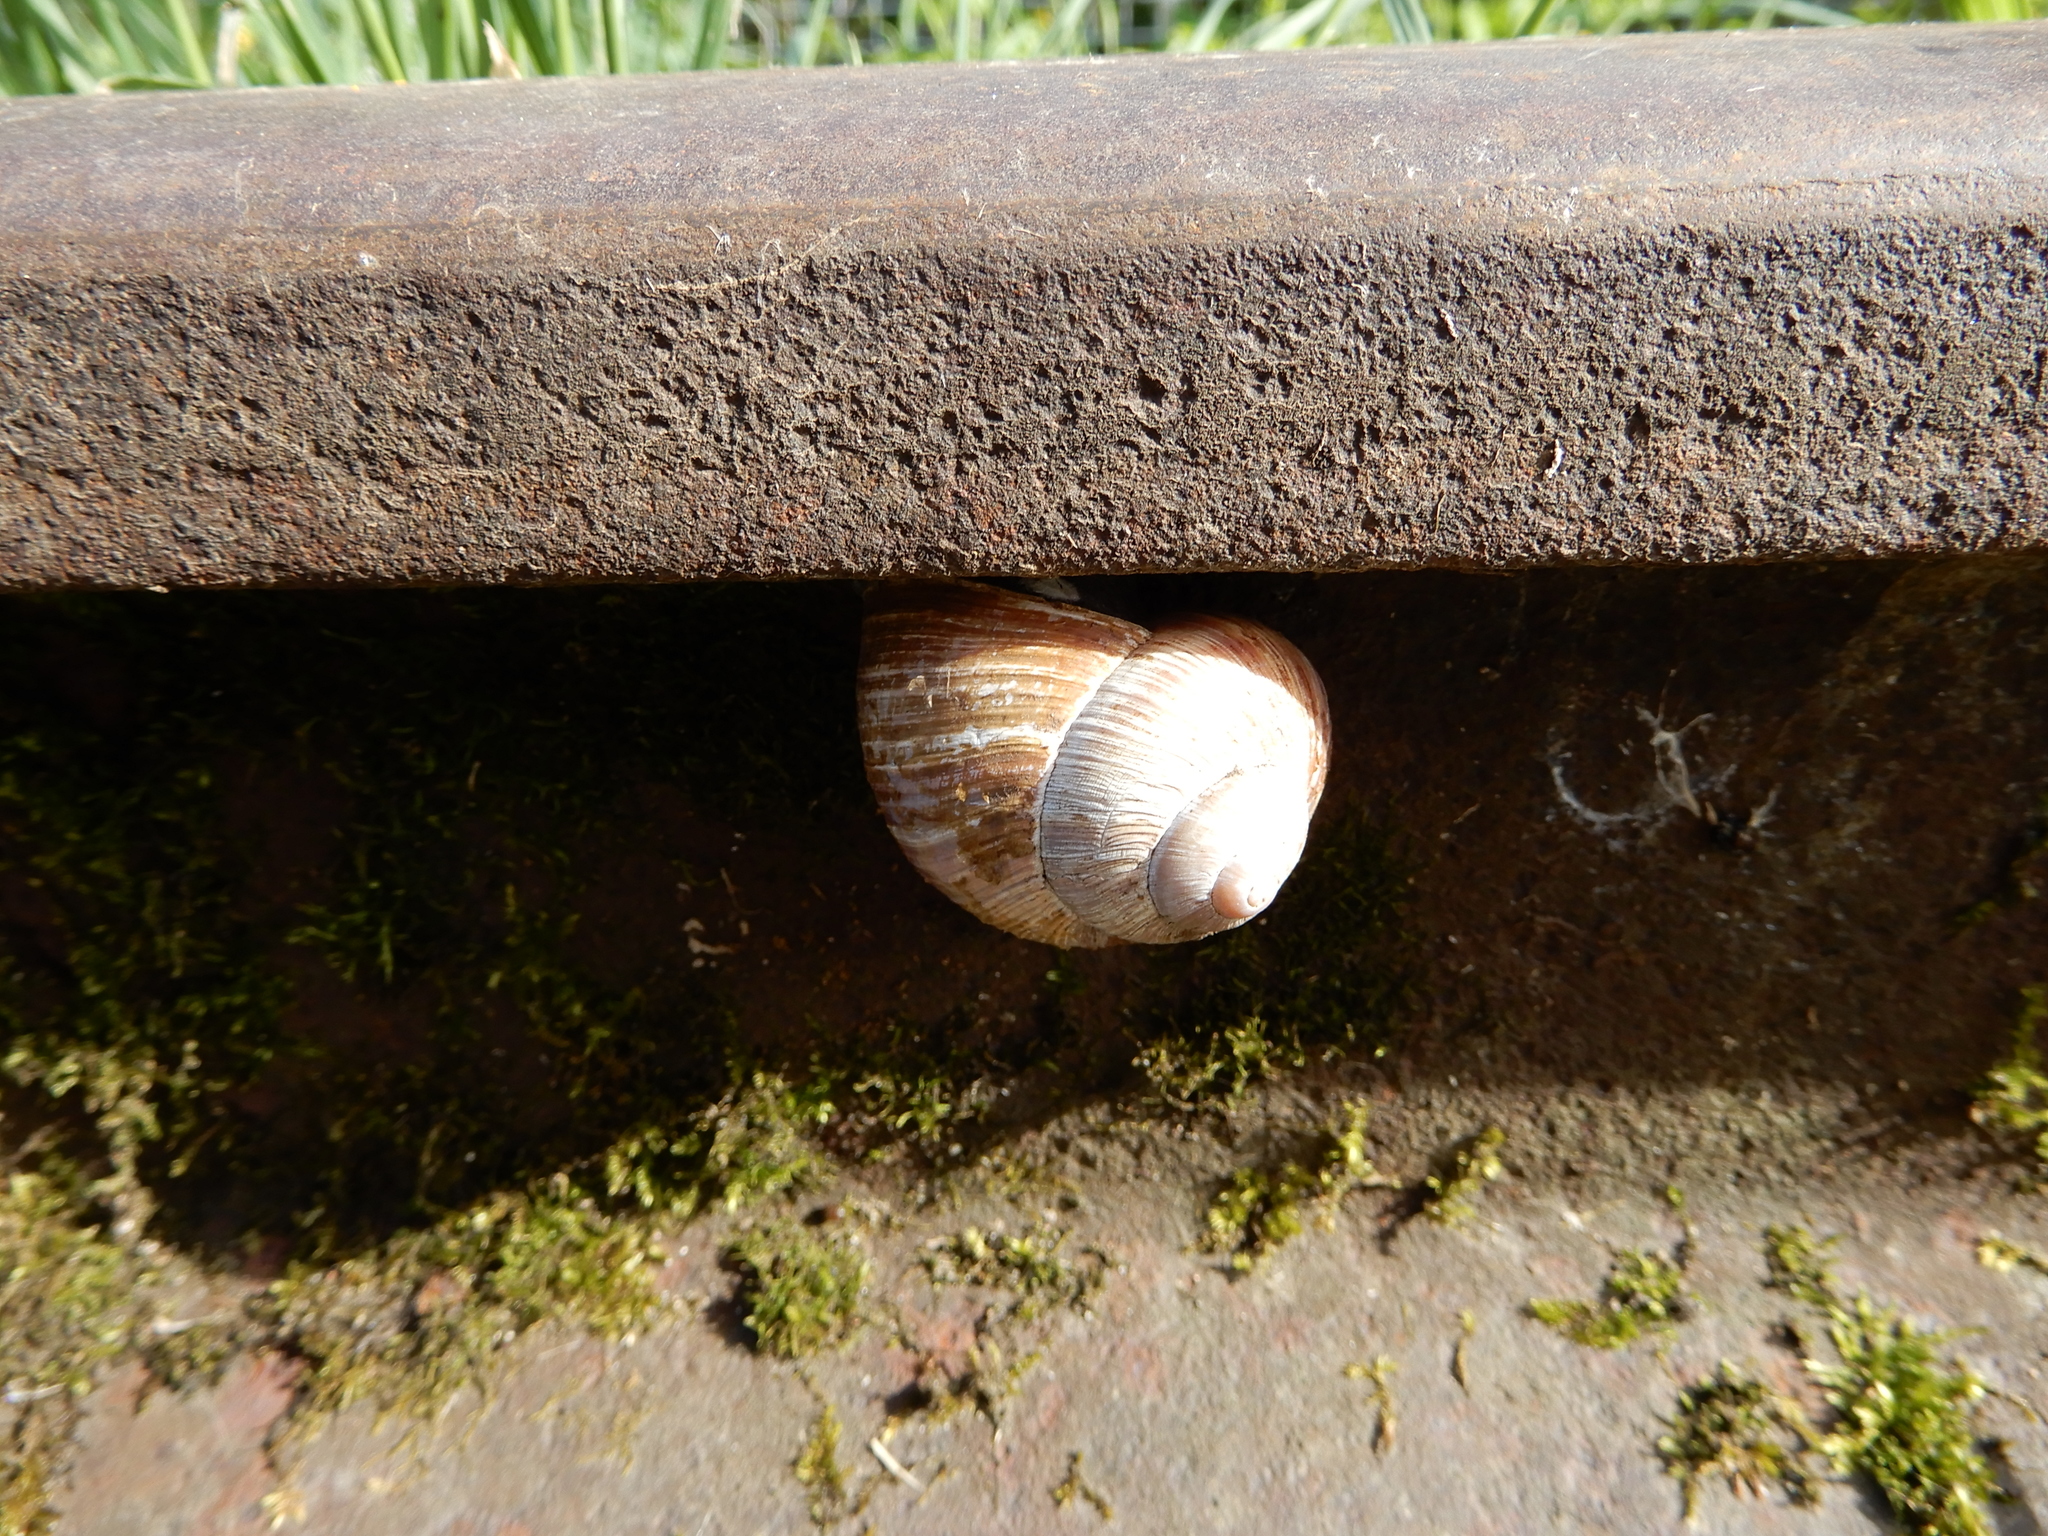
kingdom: Animalia
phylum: Mollusca
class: Gastropoda
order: Stylommatophora
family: Helicidae
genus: Helix
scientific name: Helix pomatia
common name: Roman snail
